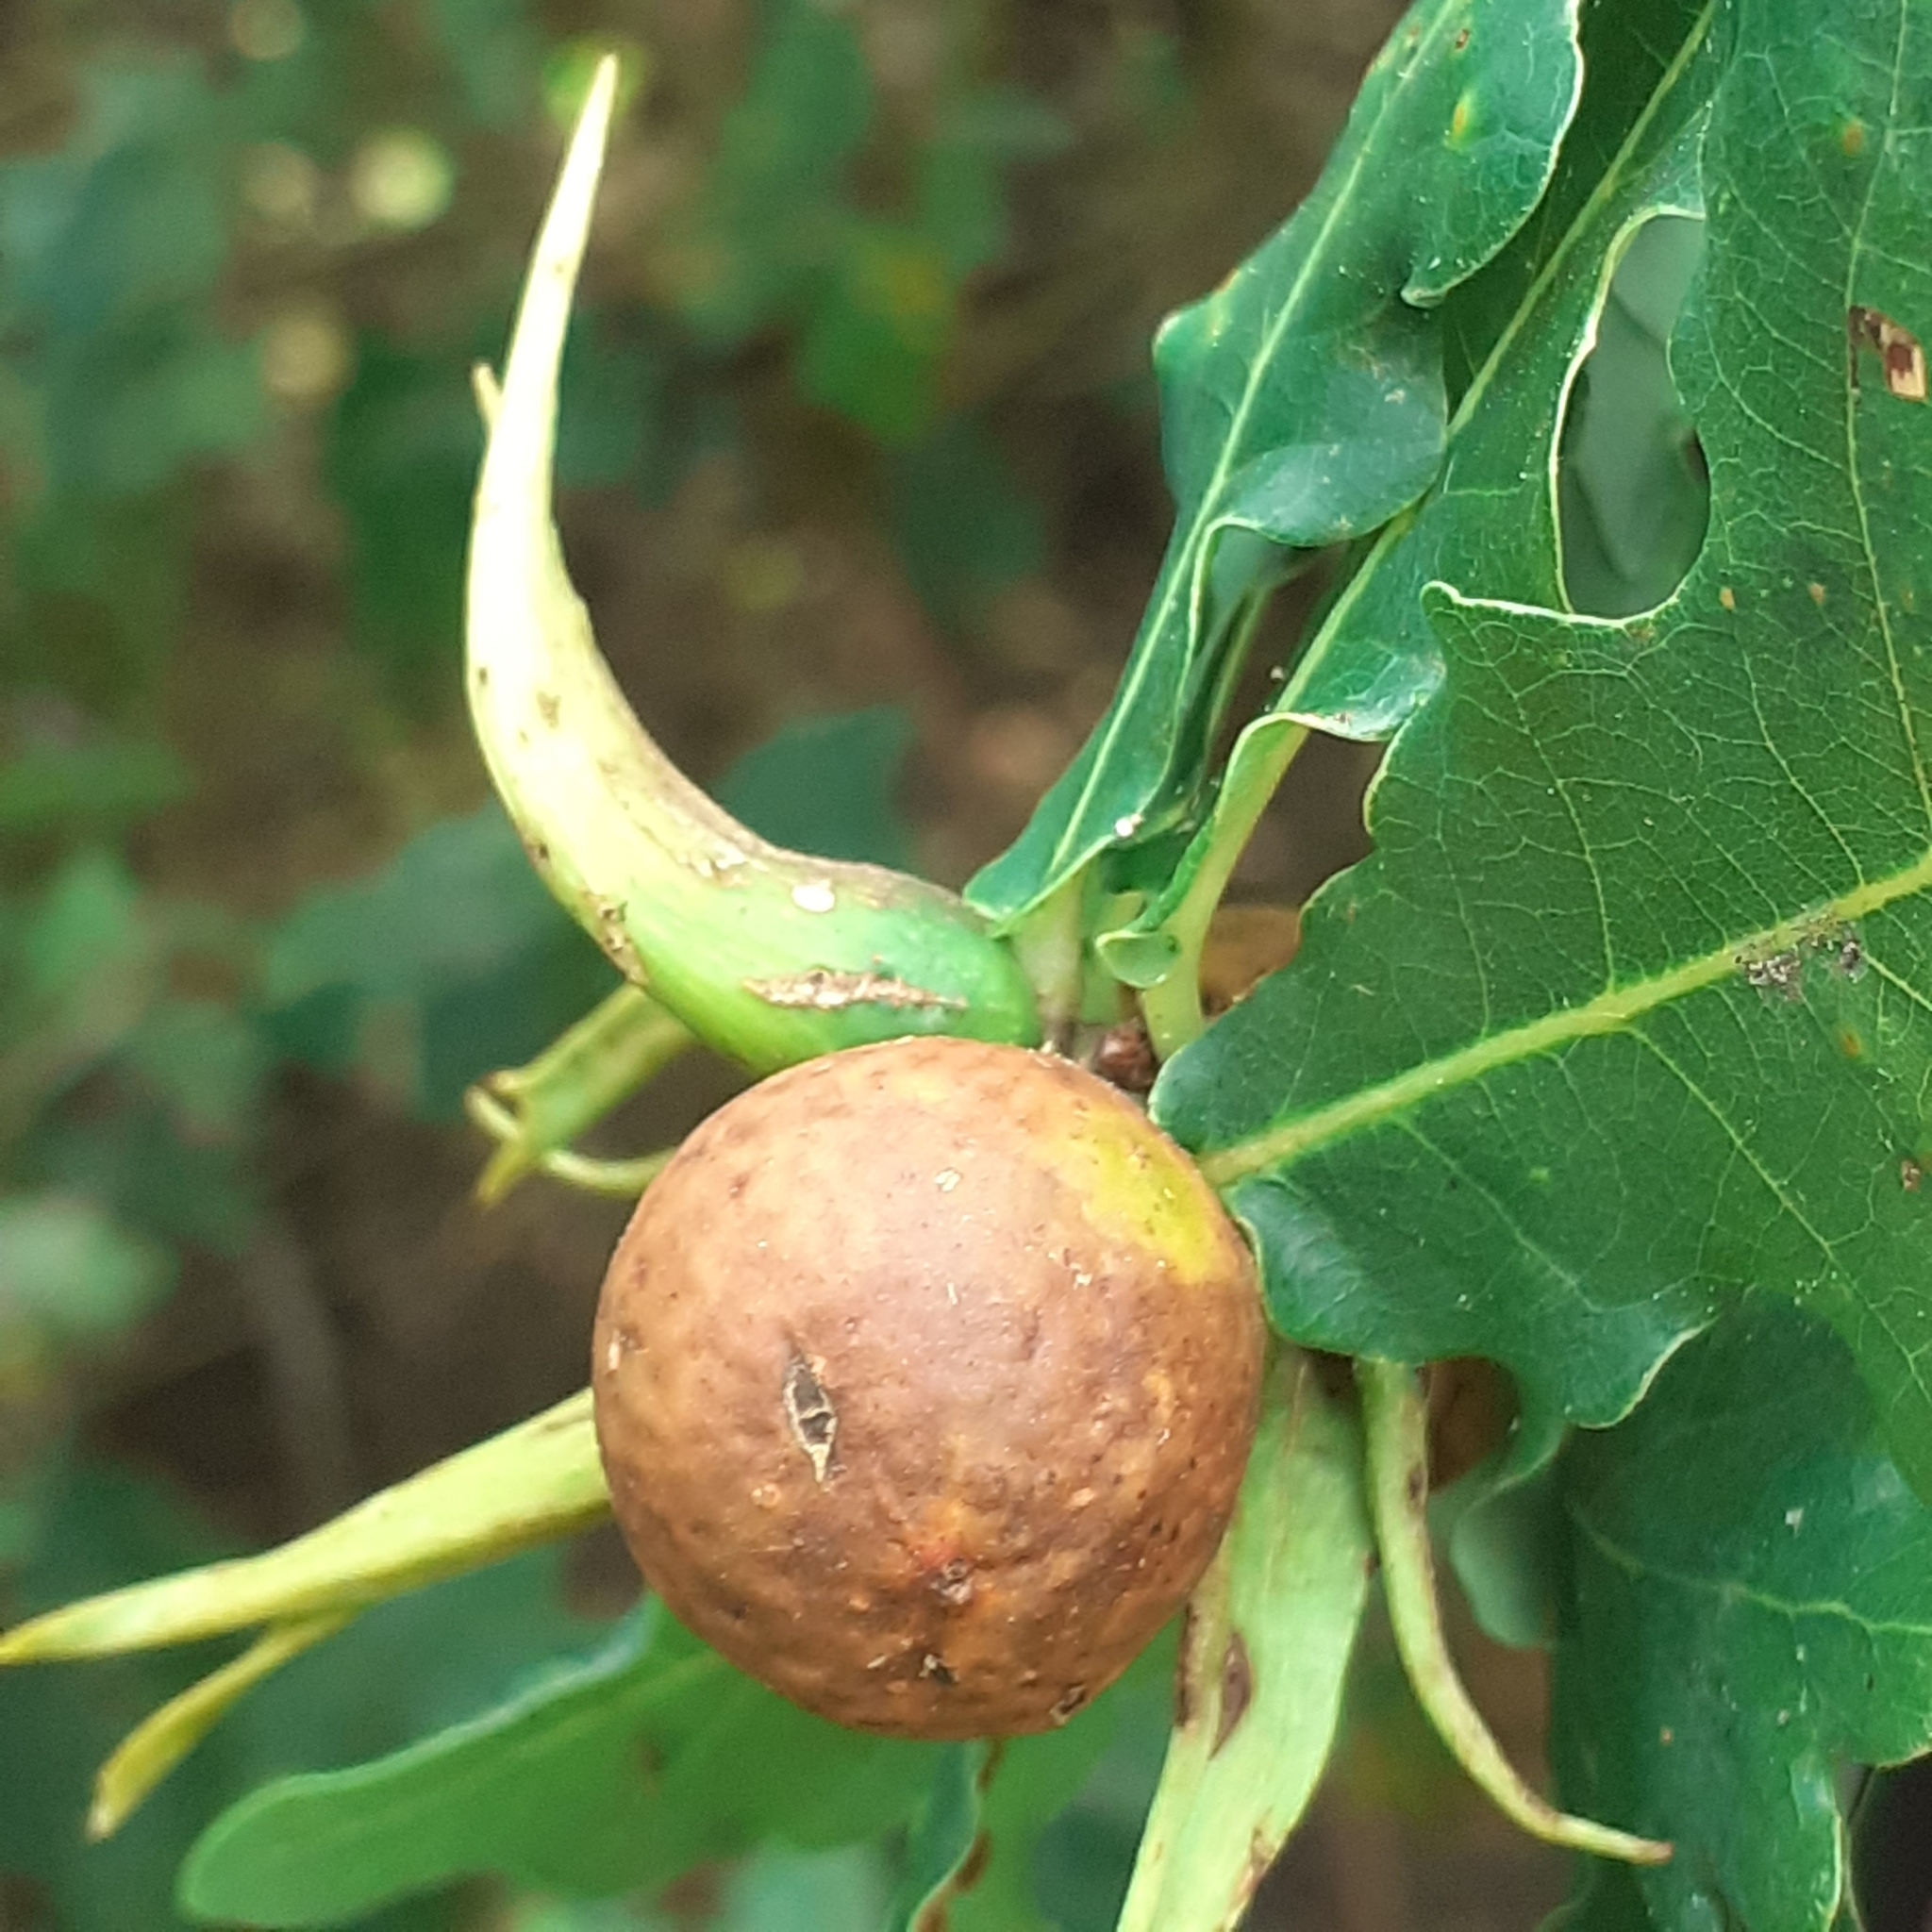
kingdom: Animalia
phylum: Arthropoda
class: Insecta
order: Hymenoptera
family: Cynipidae
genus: Andricus
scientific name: Andricus aries
